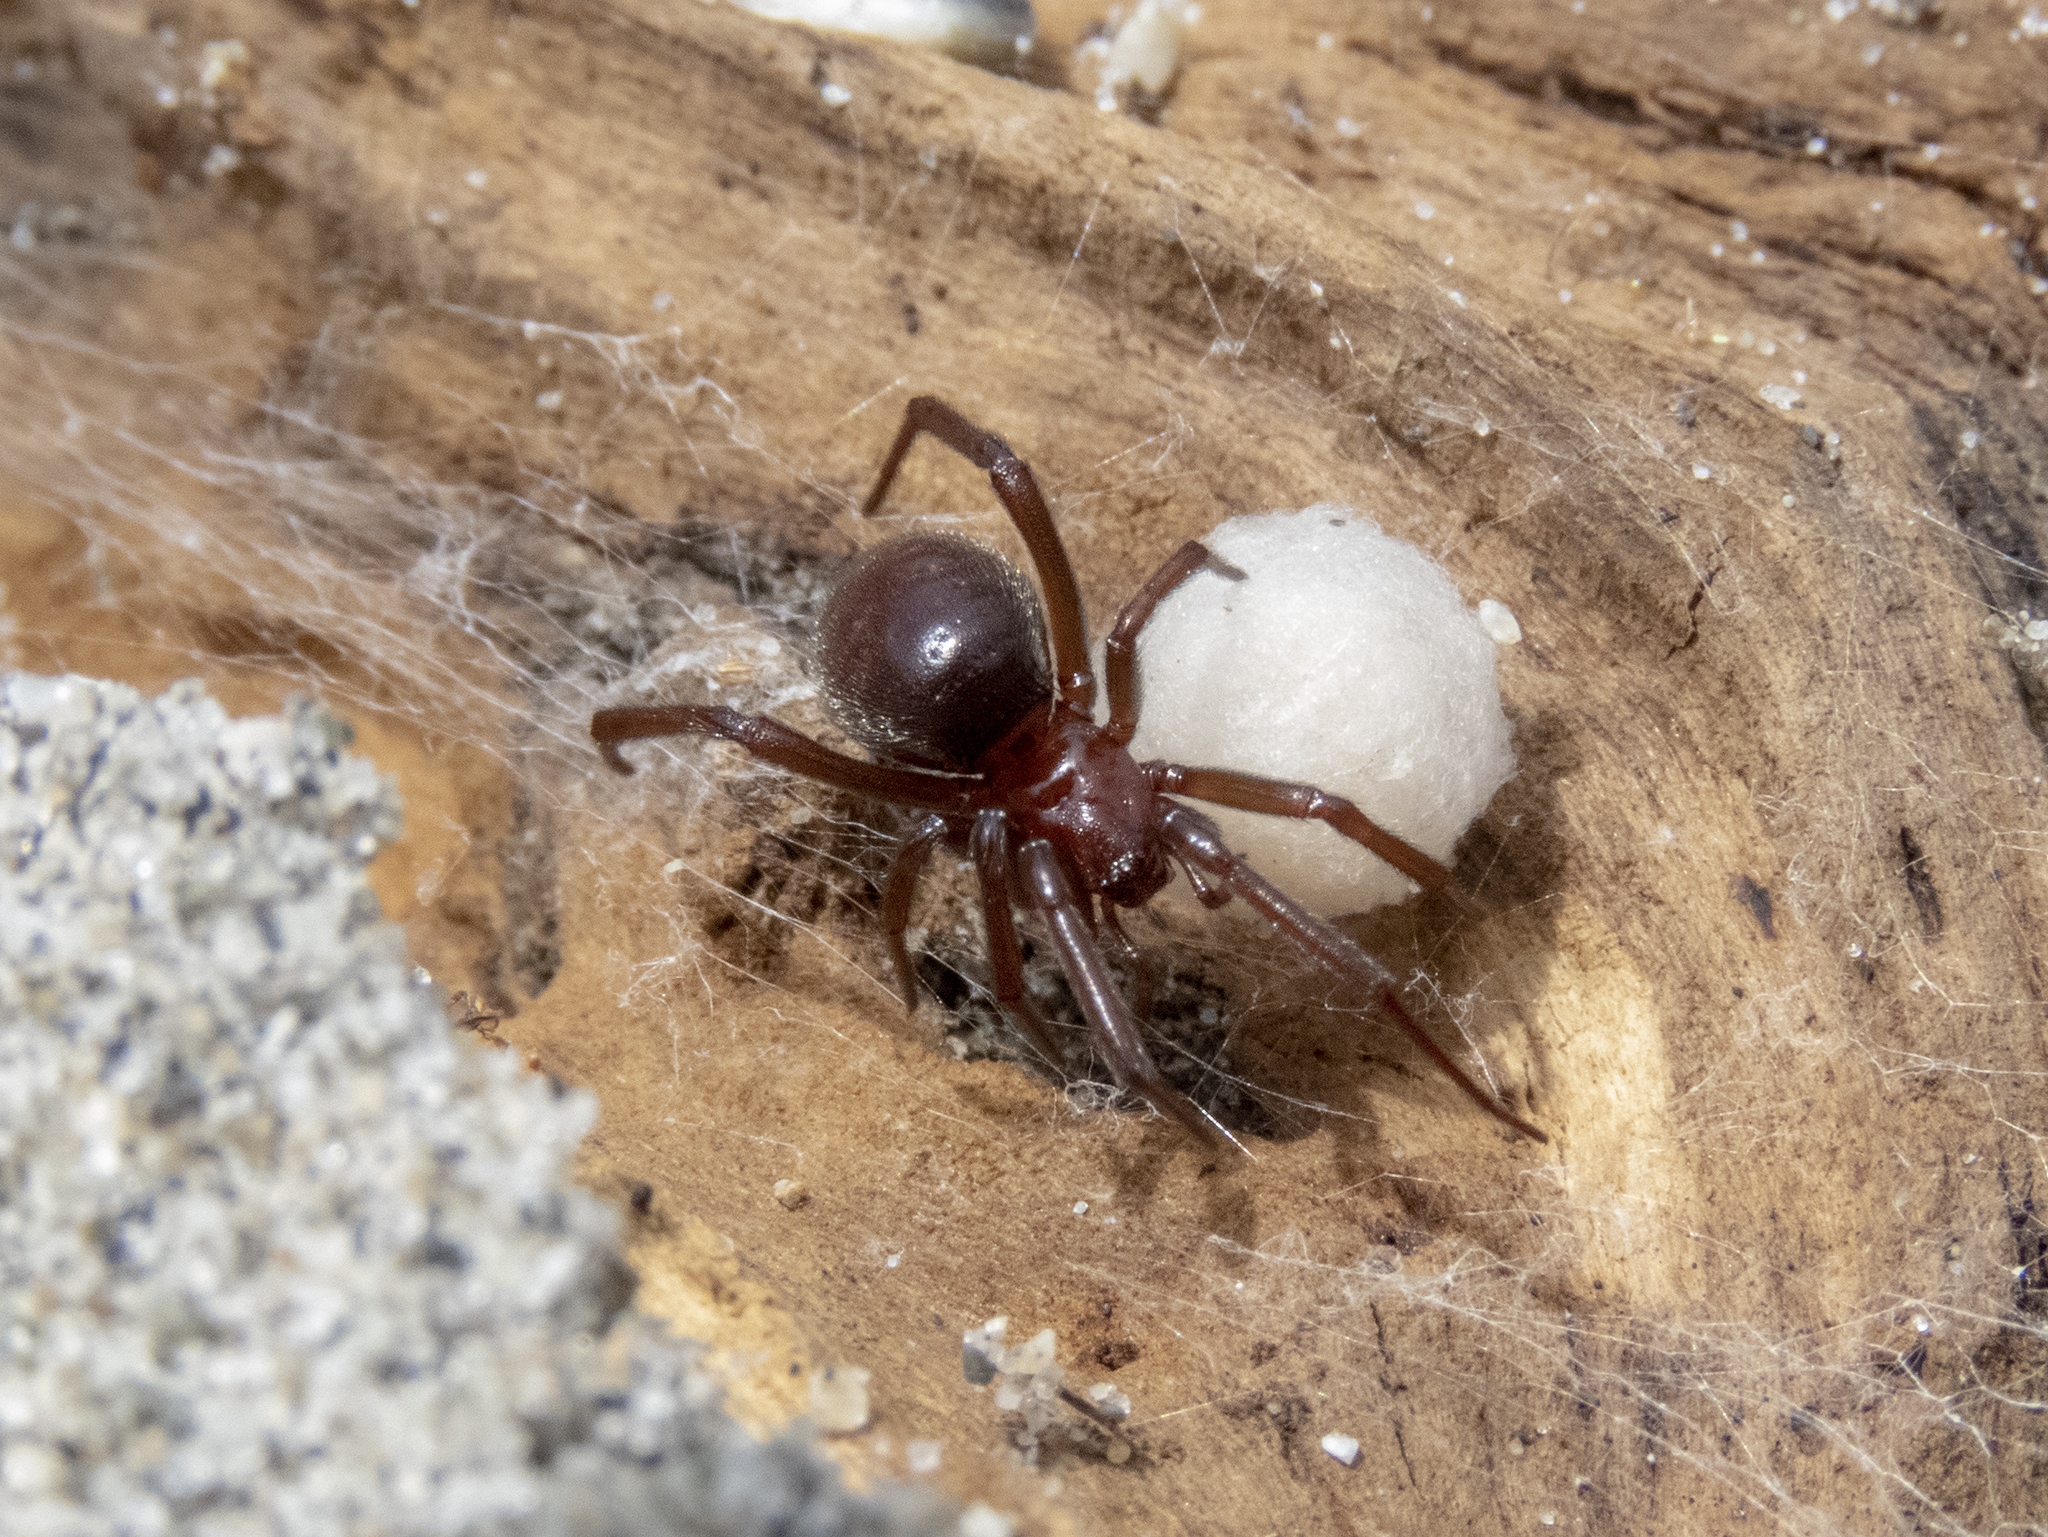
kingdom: Animalia
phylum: Arthropoda
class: Arachnida
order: Araneae
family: Theridiidae
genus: Steatoda
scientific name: Steatoda capensis
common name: Cobweb weaver
